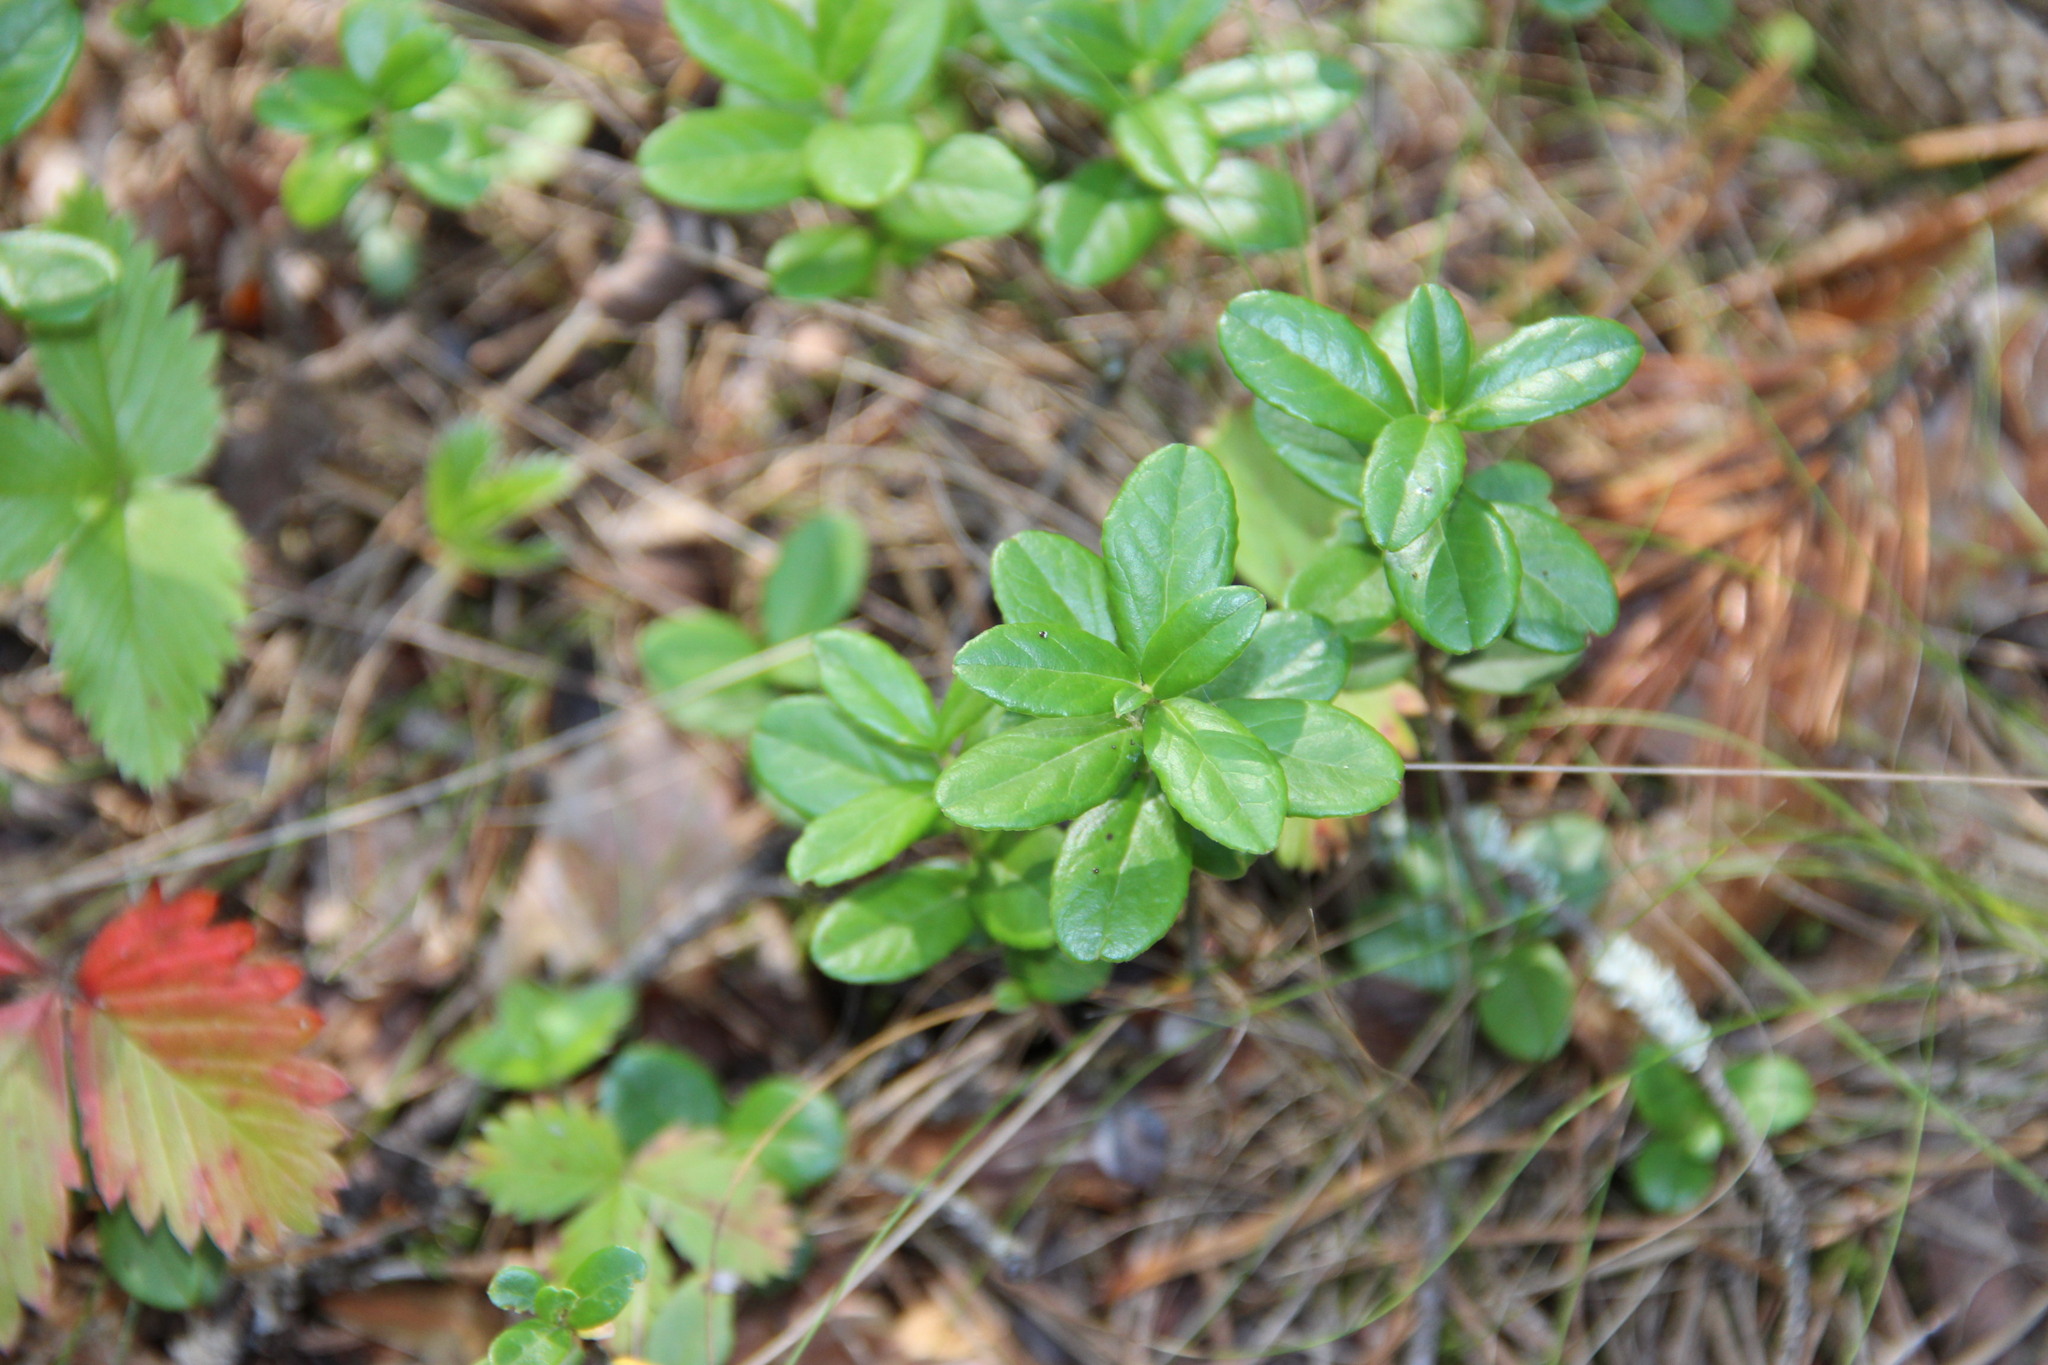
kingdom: Plantae
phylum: Tracheophyta
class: Magnoliopsida
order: Ericales
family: Ericaceae
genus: Vaccinium
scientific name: Vaccinium vitis-idaea
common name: Cowberry
